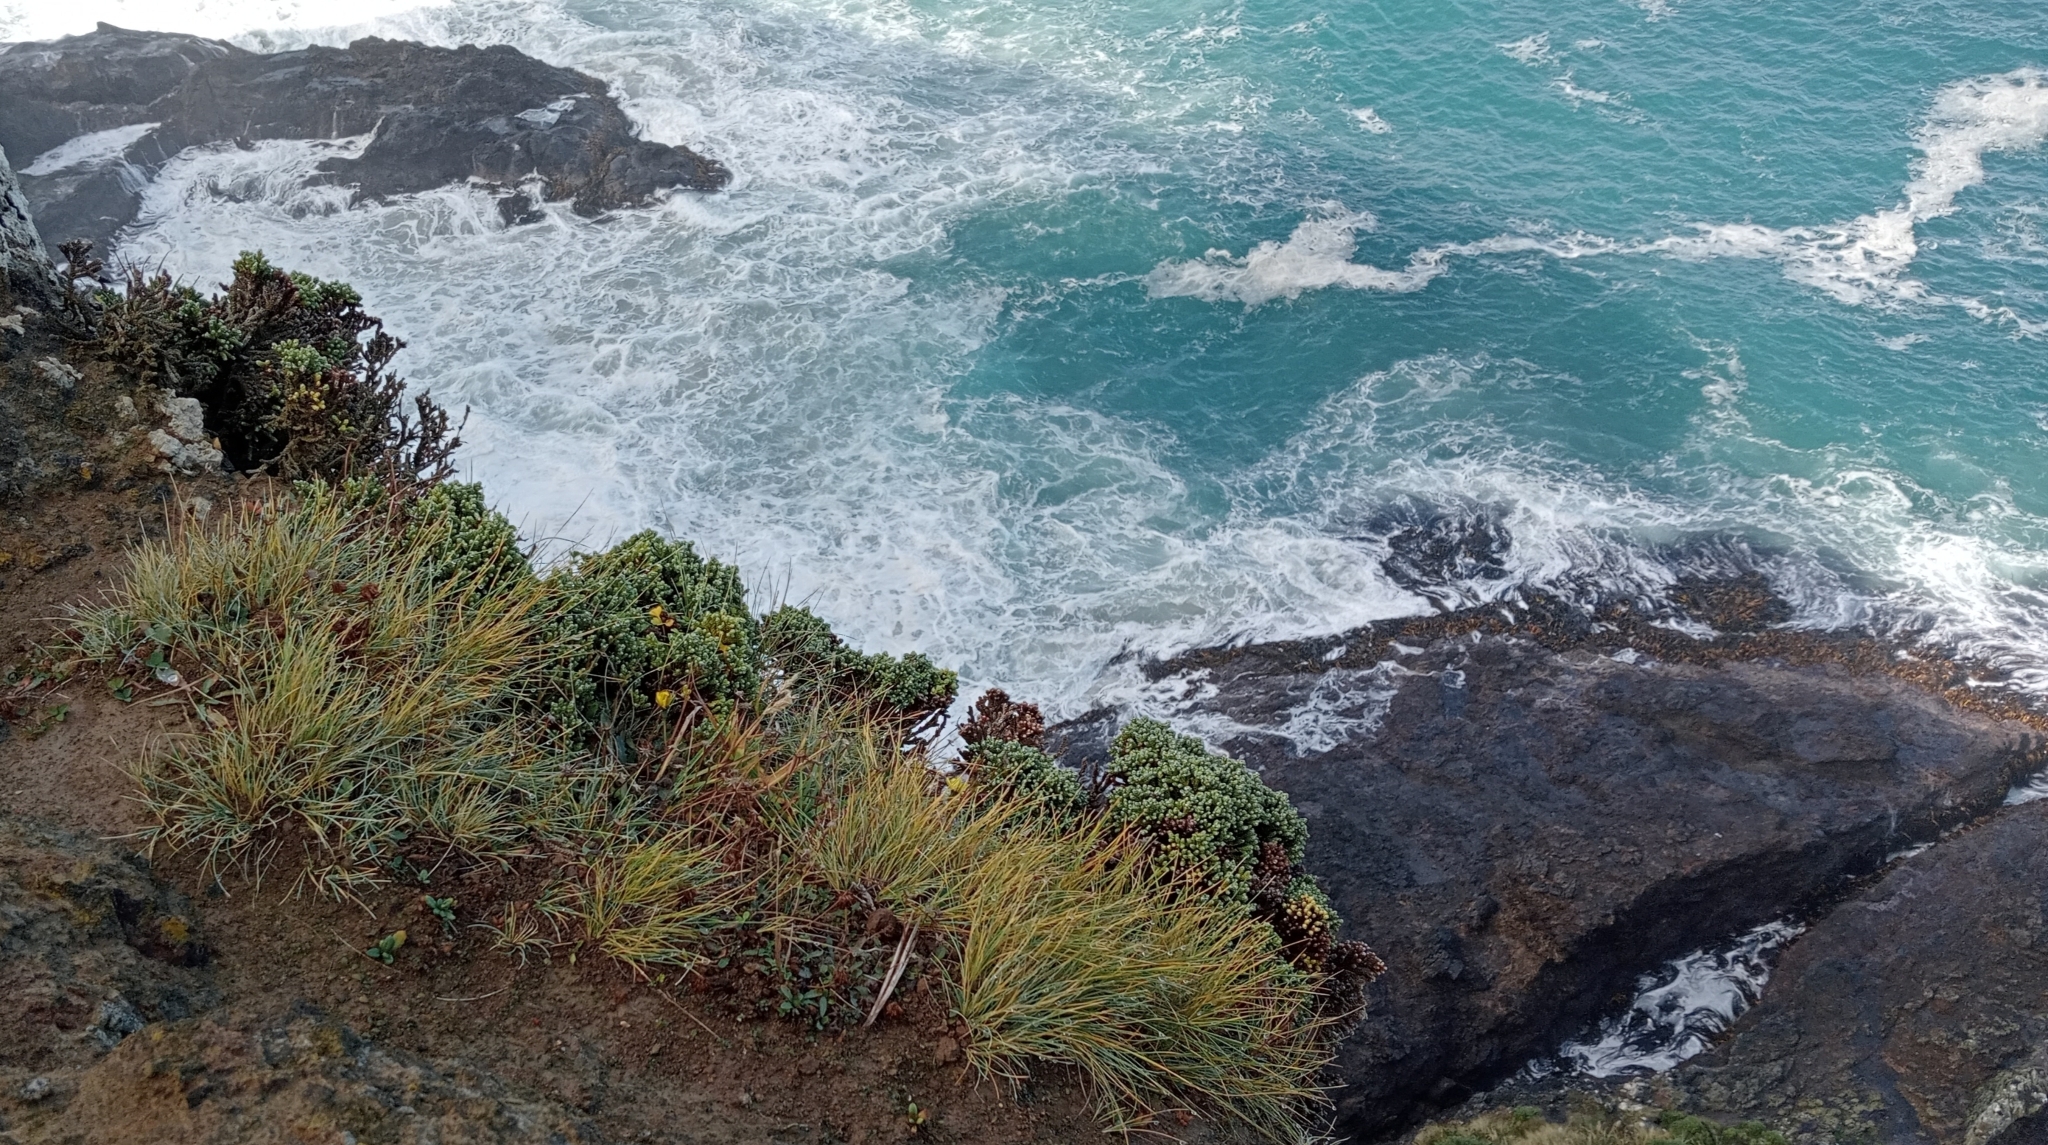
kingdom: Plantae
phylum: Tracheophyta
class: Magnoliopsida
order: Asterales
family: Asteraceae
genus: Ozothamnus
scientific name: Ozothamnus selago
